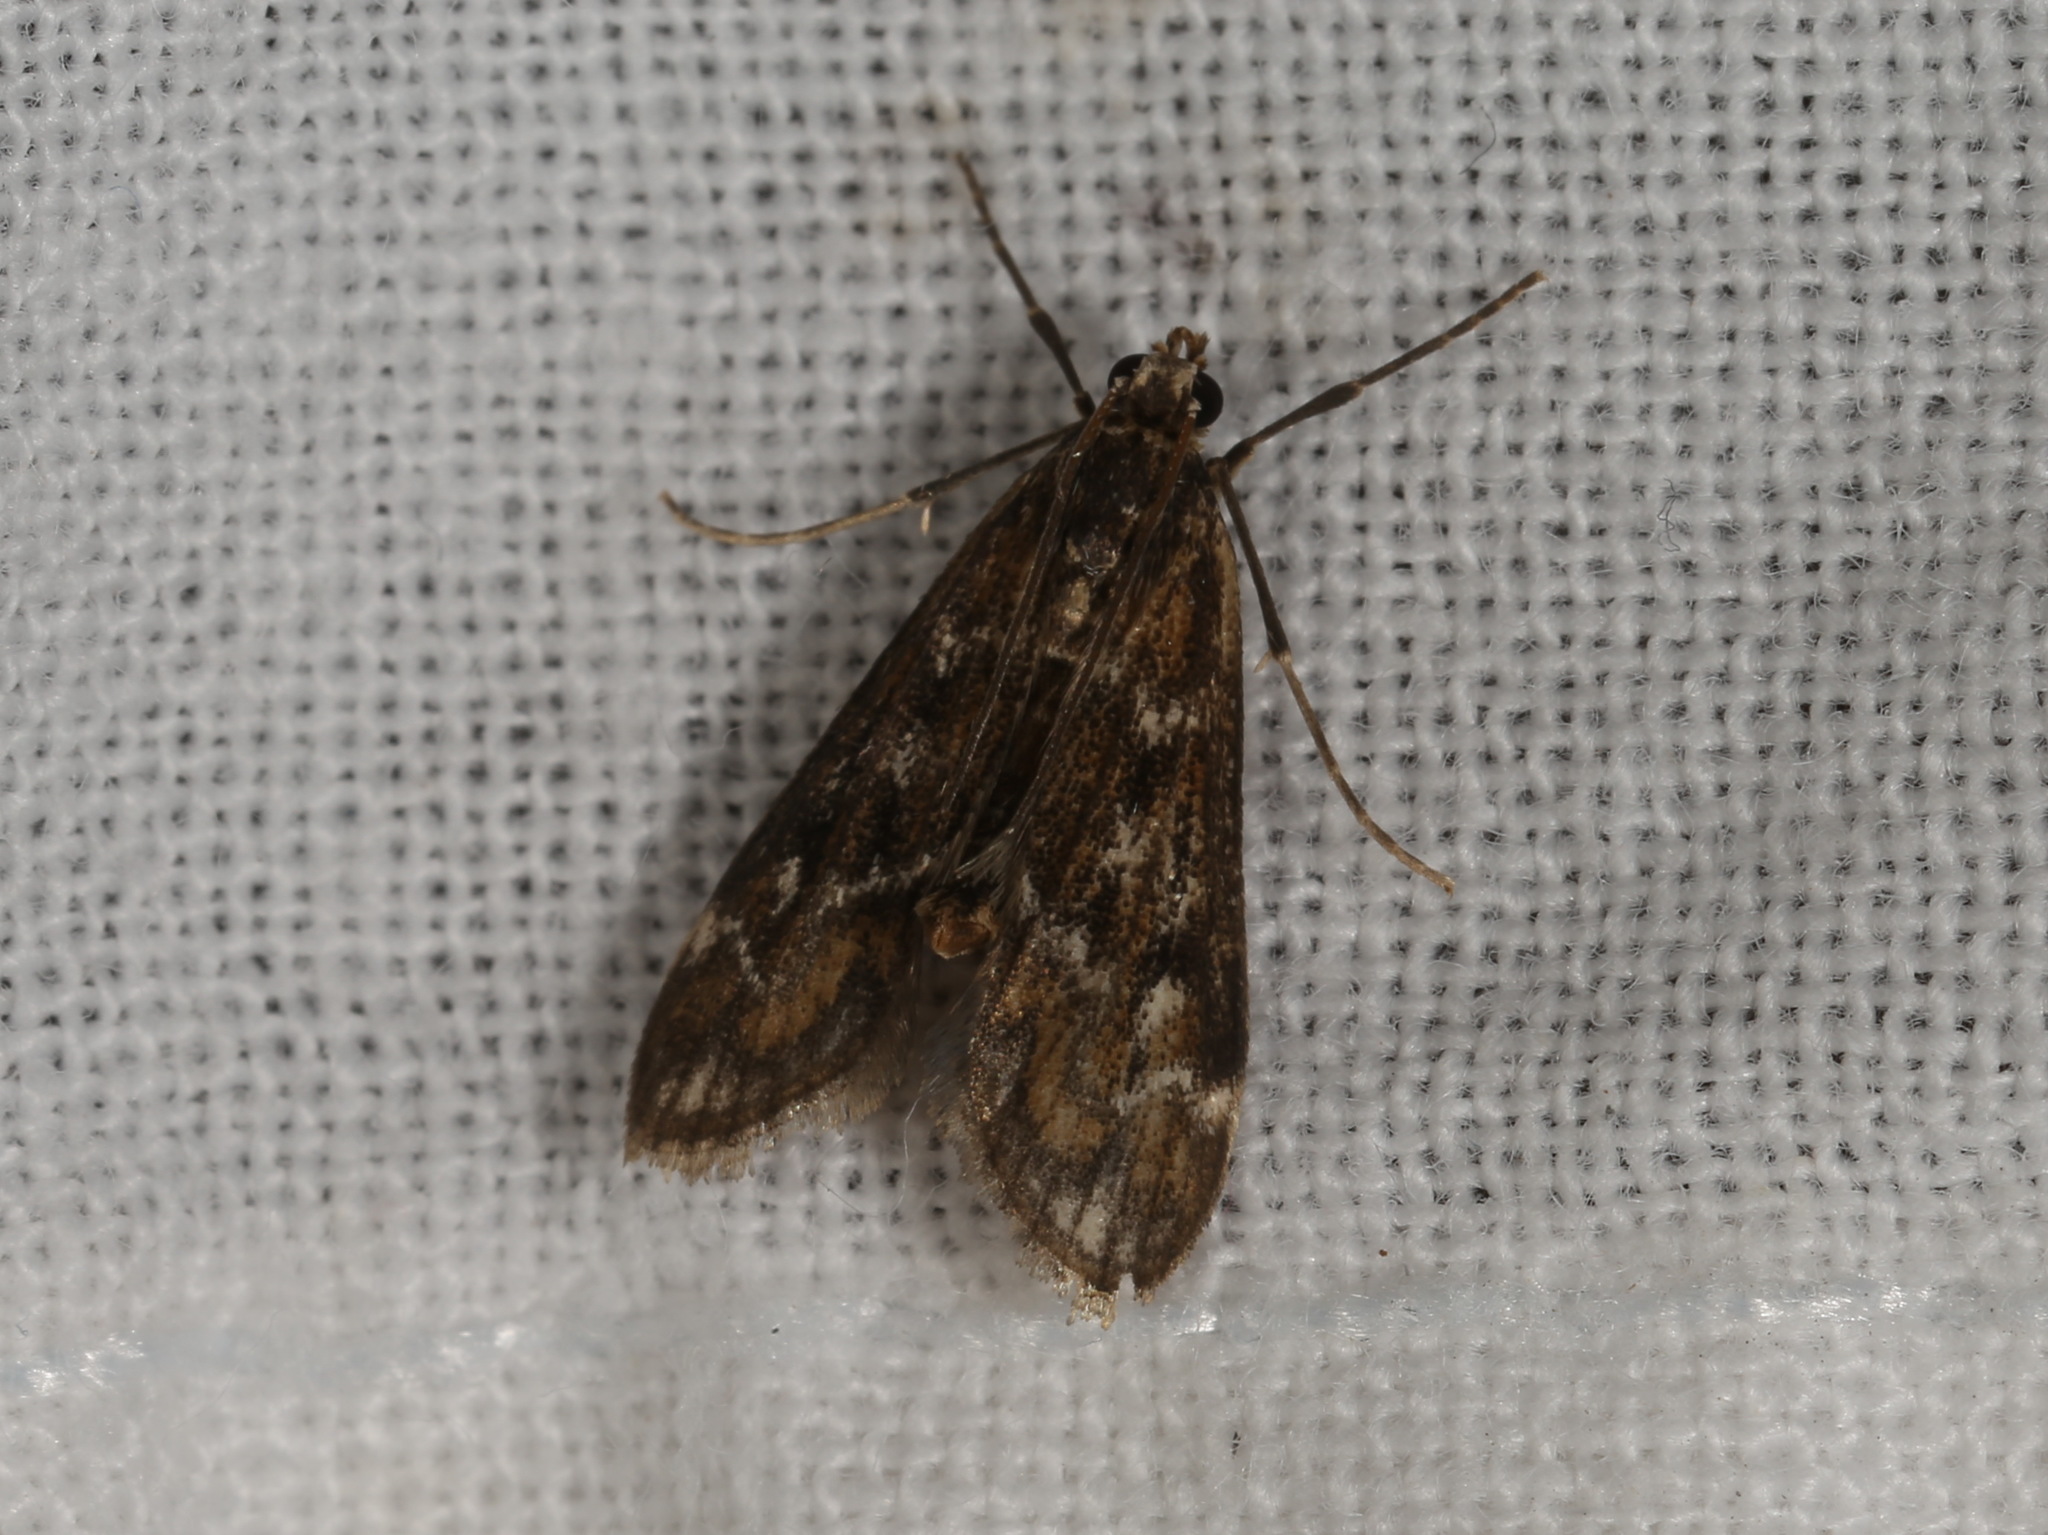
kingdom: Animalia
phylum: Arthropoda
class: Insecta
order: Lepidoptera
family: Crambidae
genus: Hygraula
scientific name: Hygraula nitens
